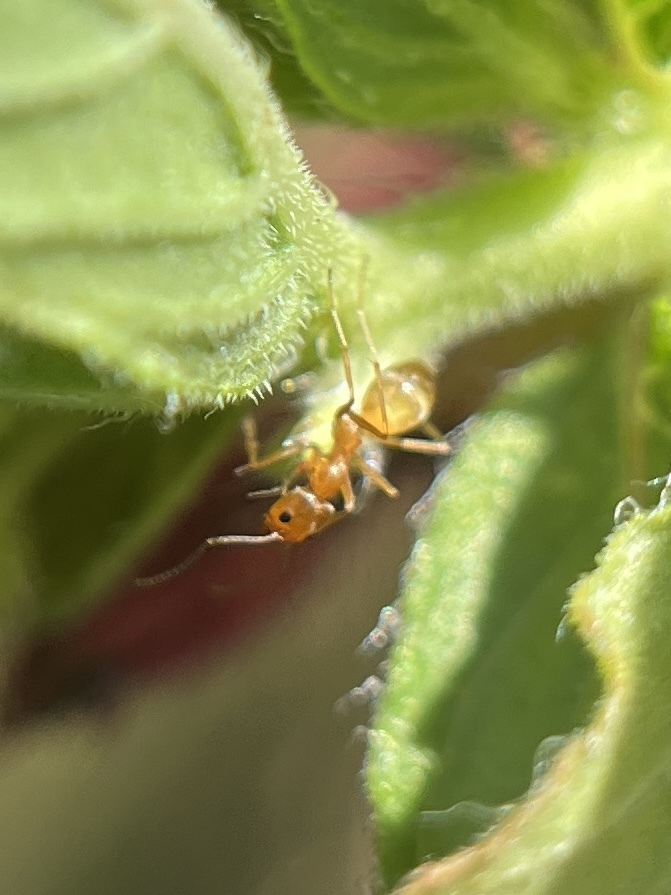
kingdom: Animalia
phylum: Arthropoda
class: Insecta
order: Hymenoptera
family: Formicidae
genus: Dorymyrmex
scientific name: Dorymyrmex bureni
